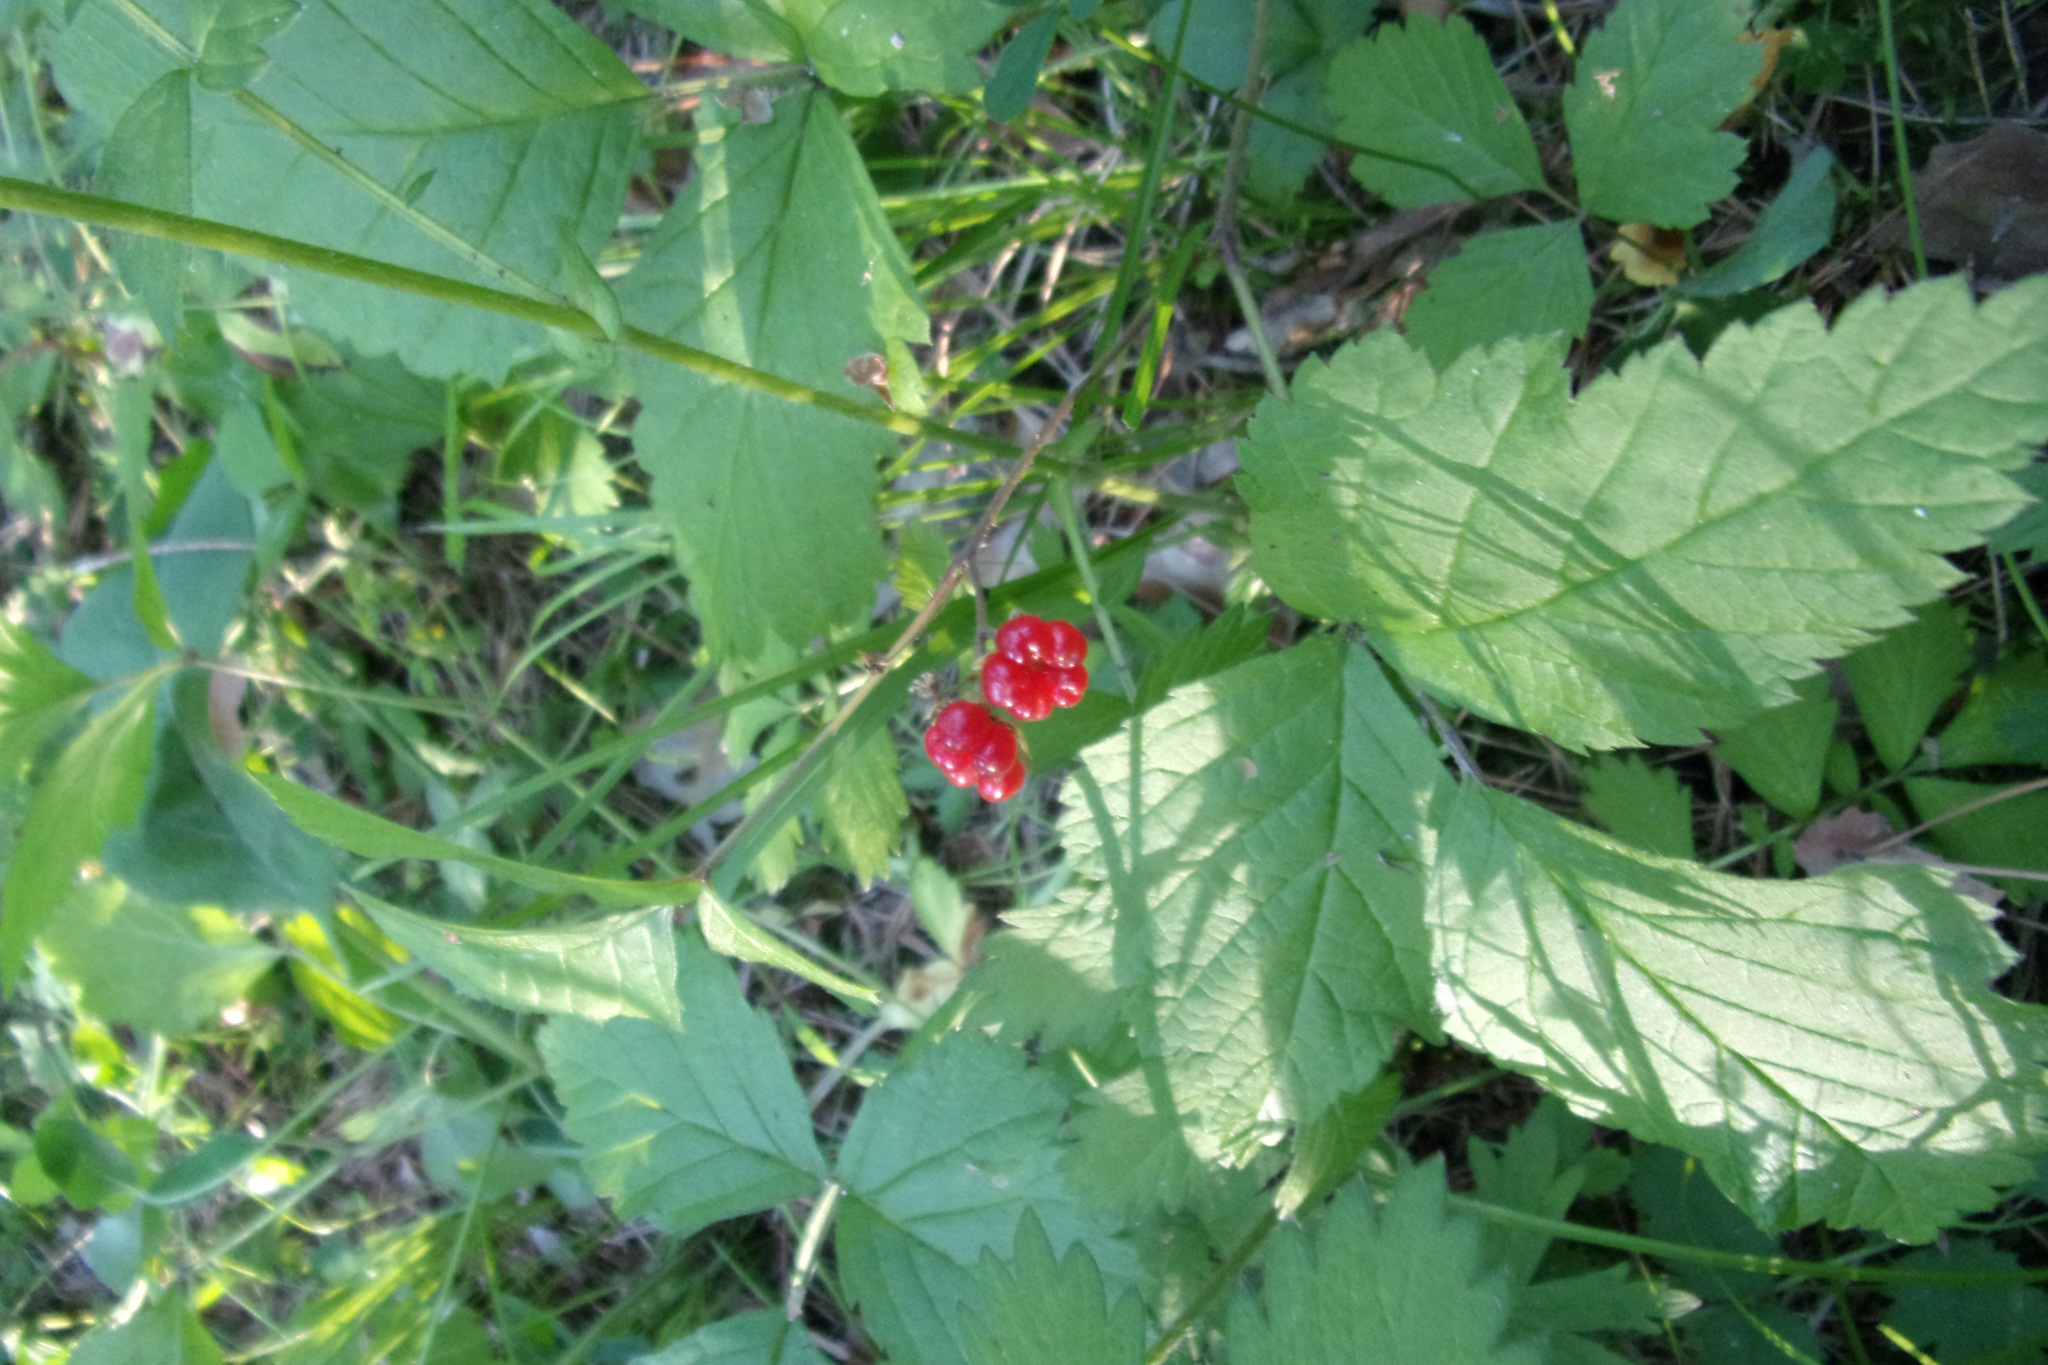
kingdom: Plantae
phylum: Tracheophyta
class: Magnoliopsida
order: Rosales
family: Rosaceae
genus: Rubus
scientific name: Rubus saxatilis
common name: Stone bramble
